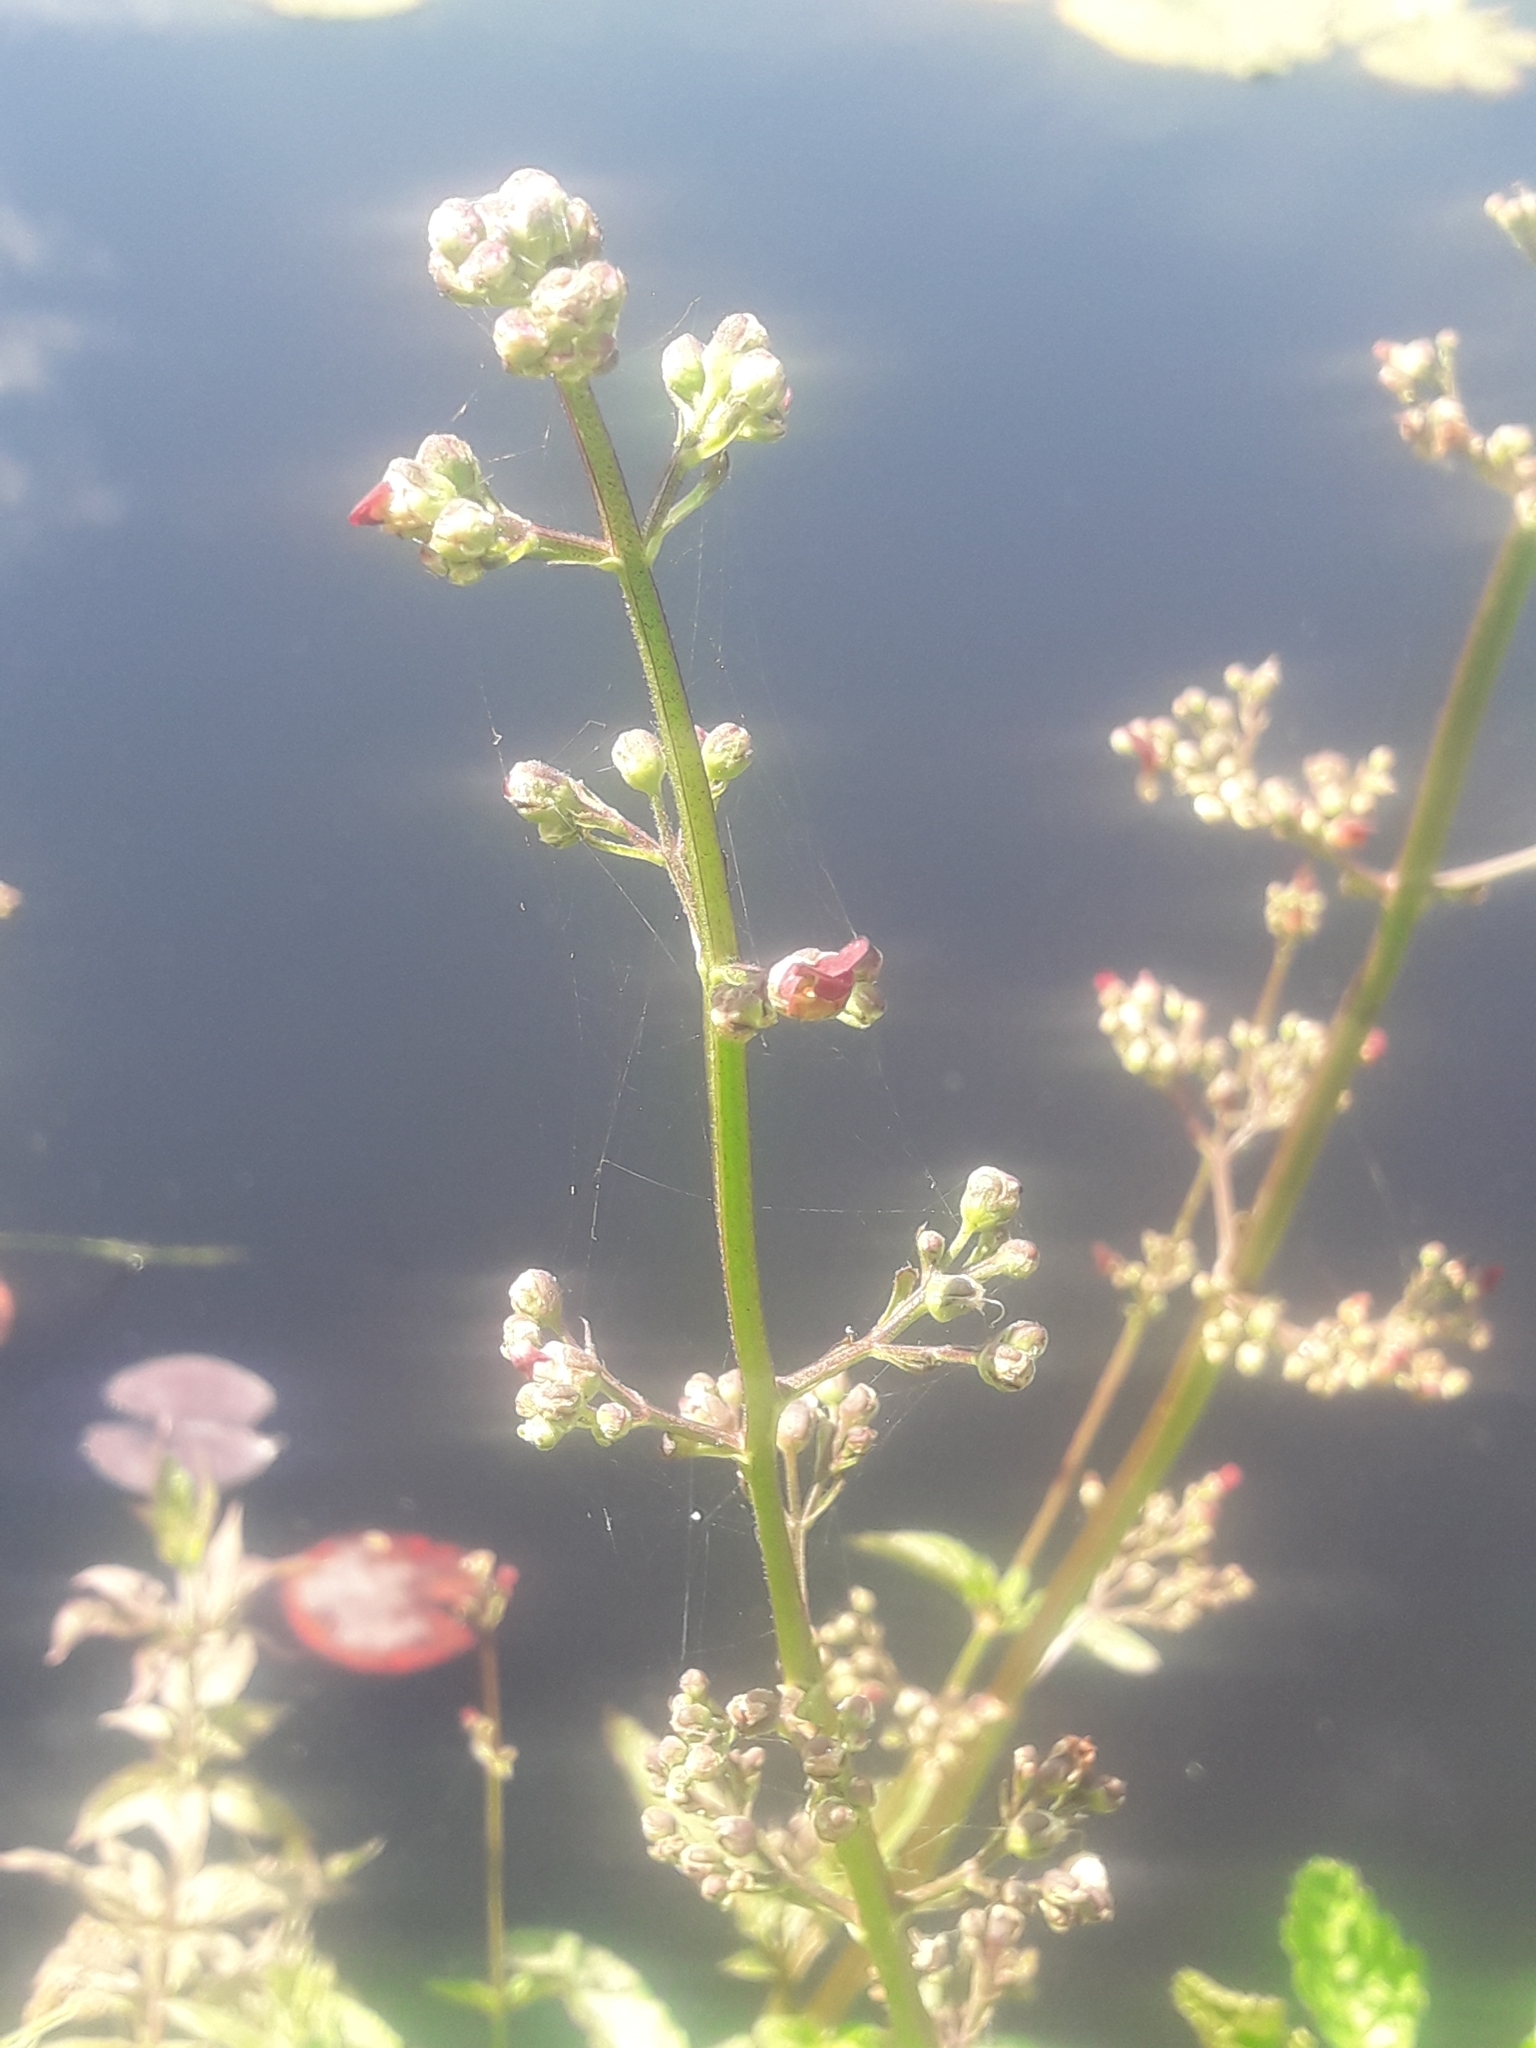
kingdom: Plantae
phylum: Tracheophyta
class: Magnoliopsida
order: Lamiales
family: Scrophulariaceae
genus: Scrophularia
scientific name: Scrophularia nodosa
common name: Common figwort
